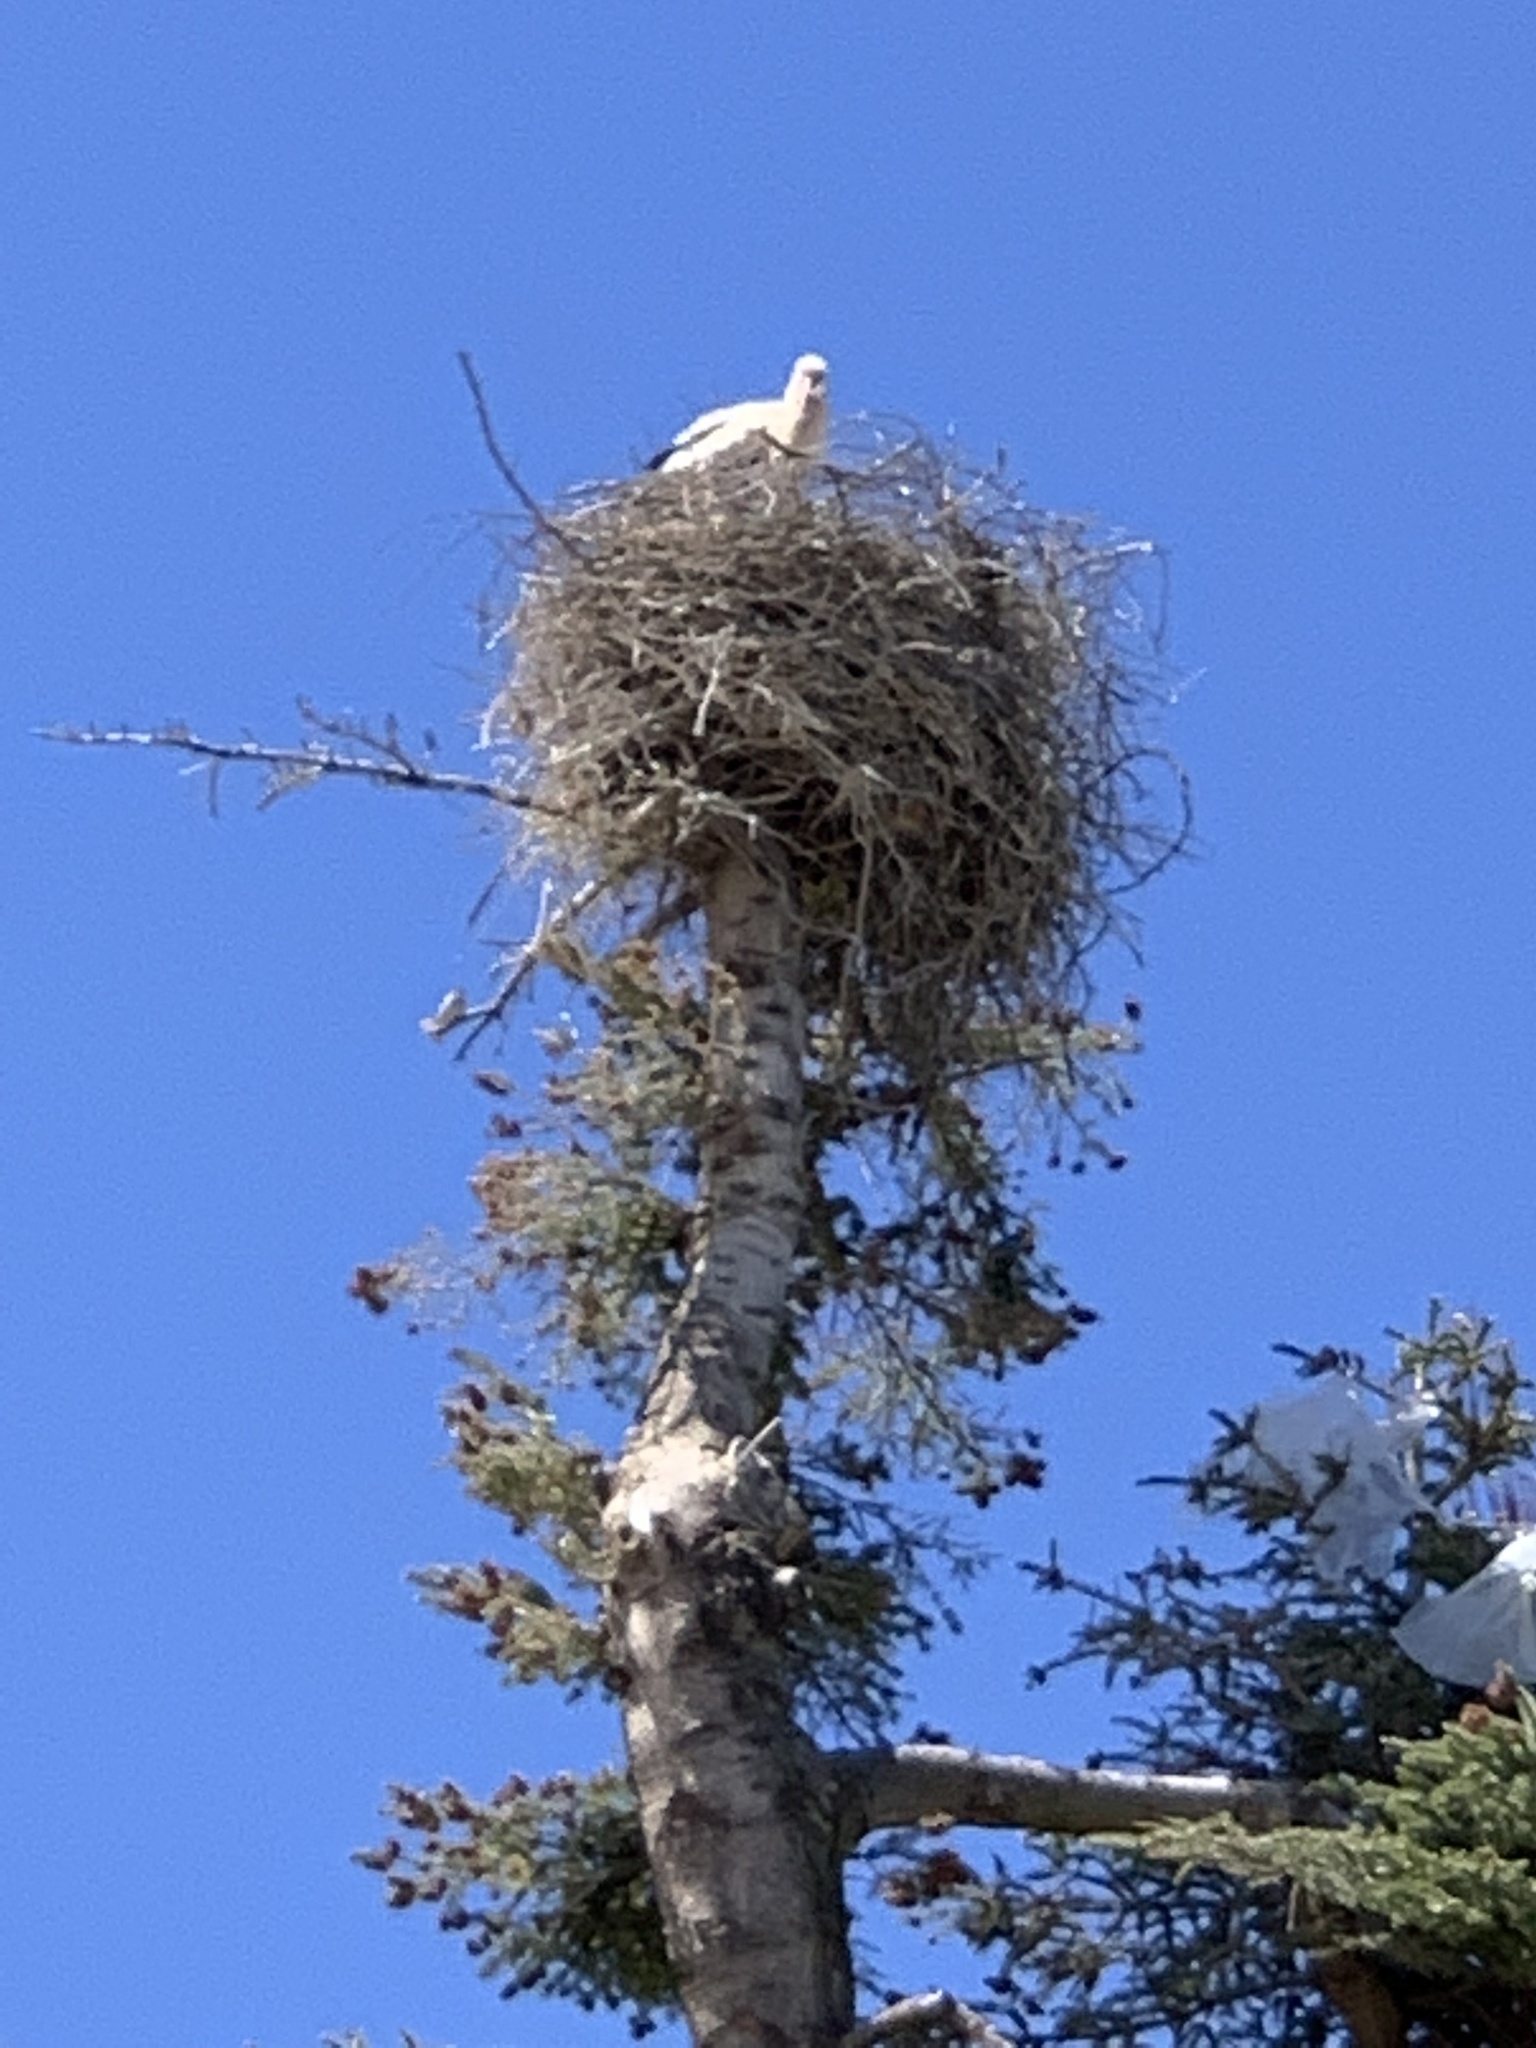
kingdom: Animalia
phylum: Chordata
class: Aves
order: Ciconiiformes
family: Ciconiidae
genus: Ciconia
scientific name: Ciconia ciconia
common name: White stork
